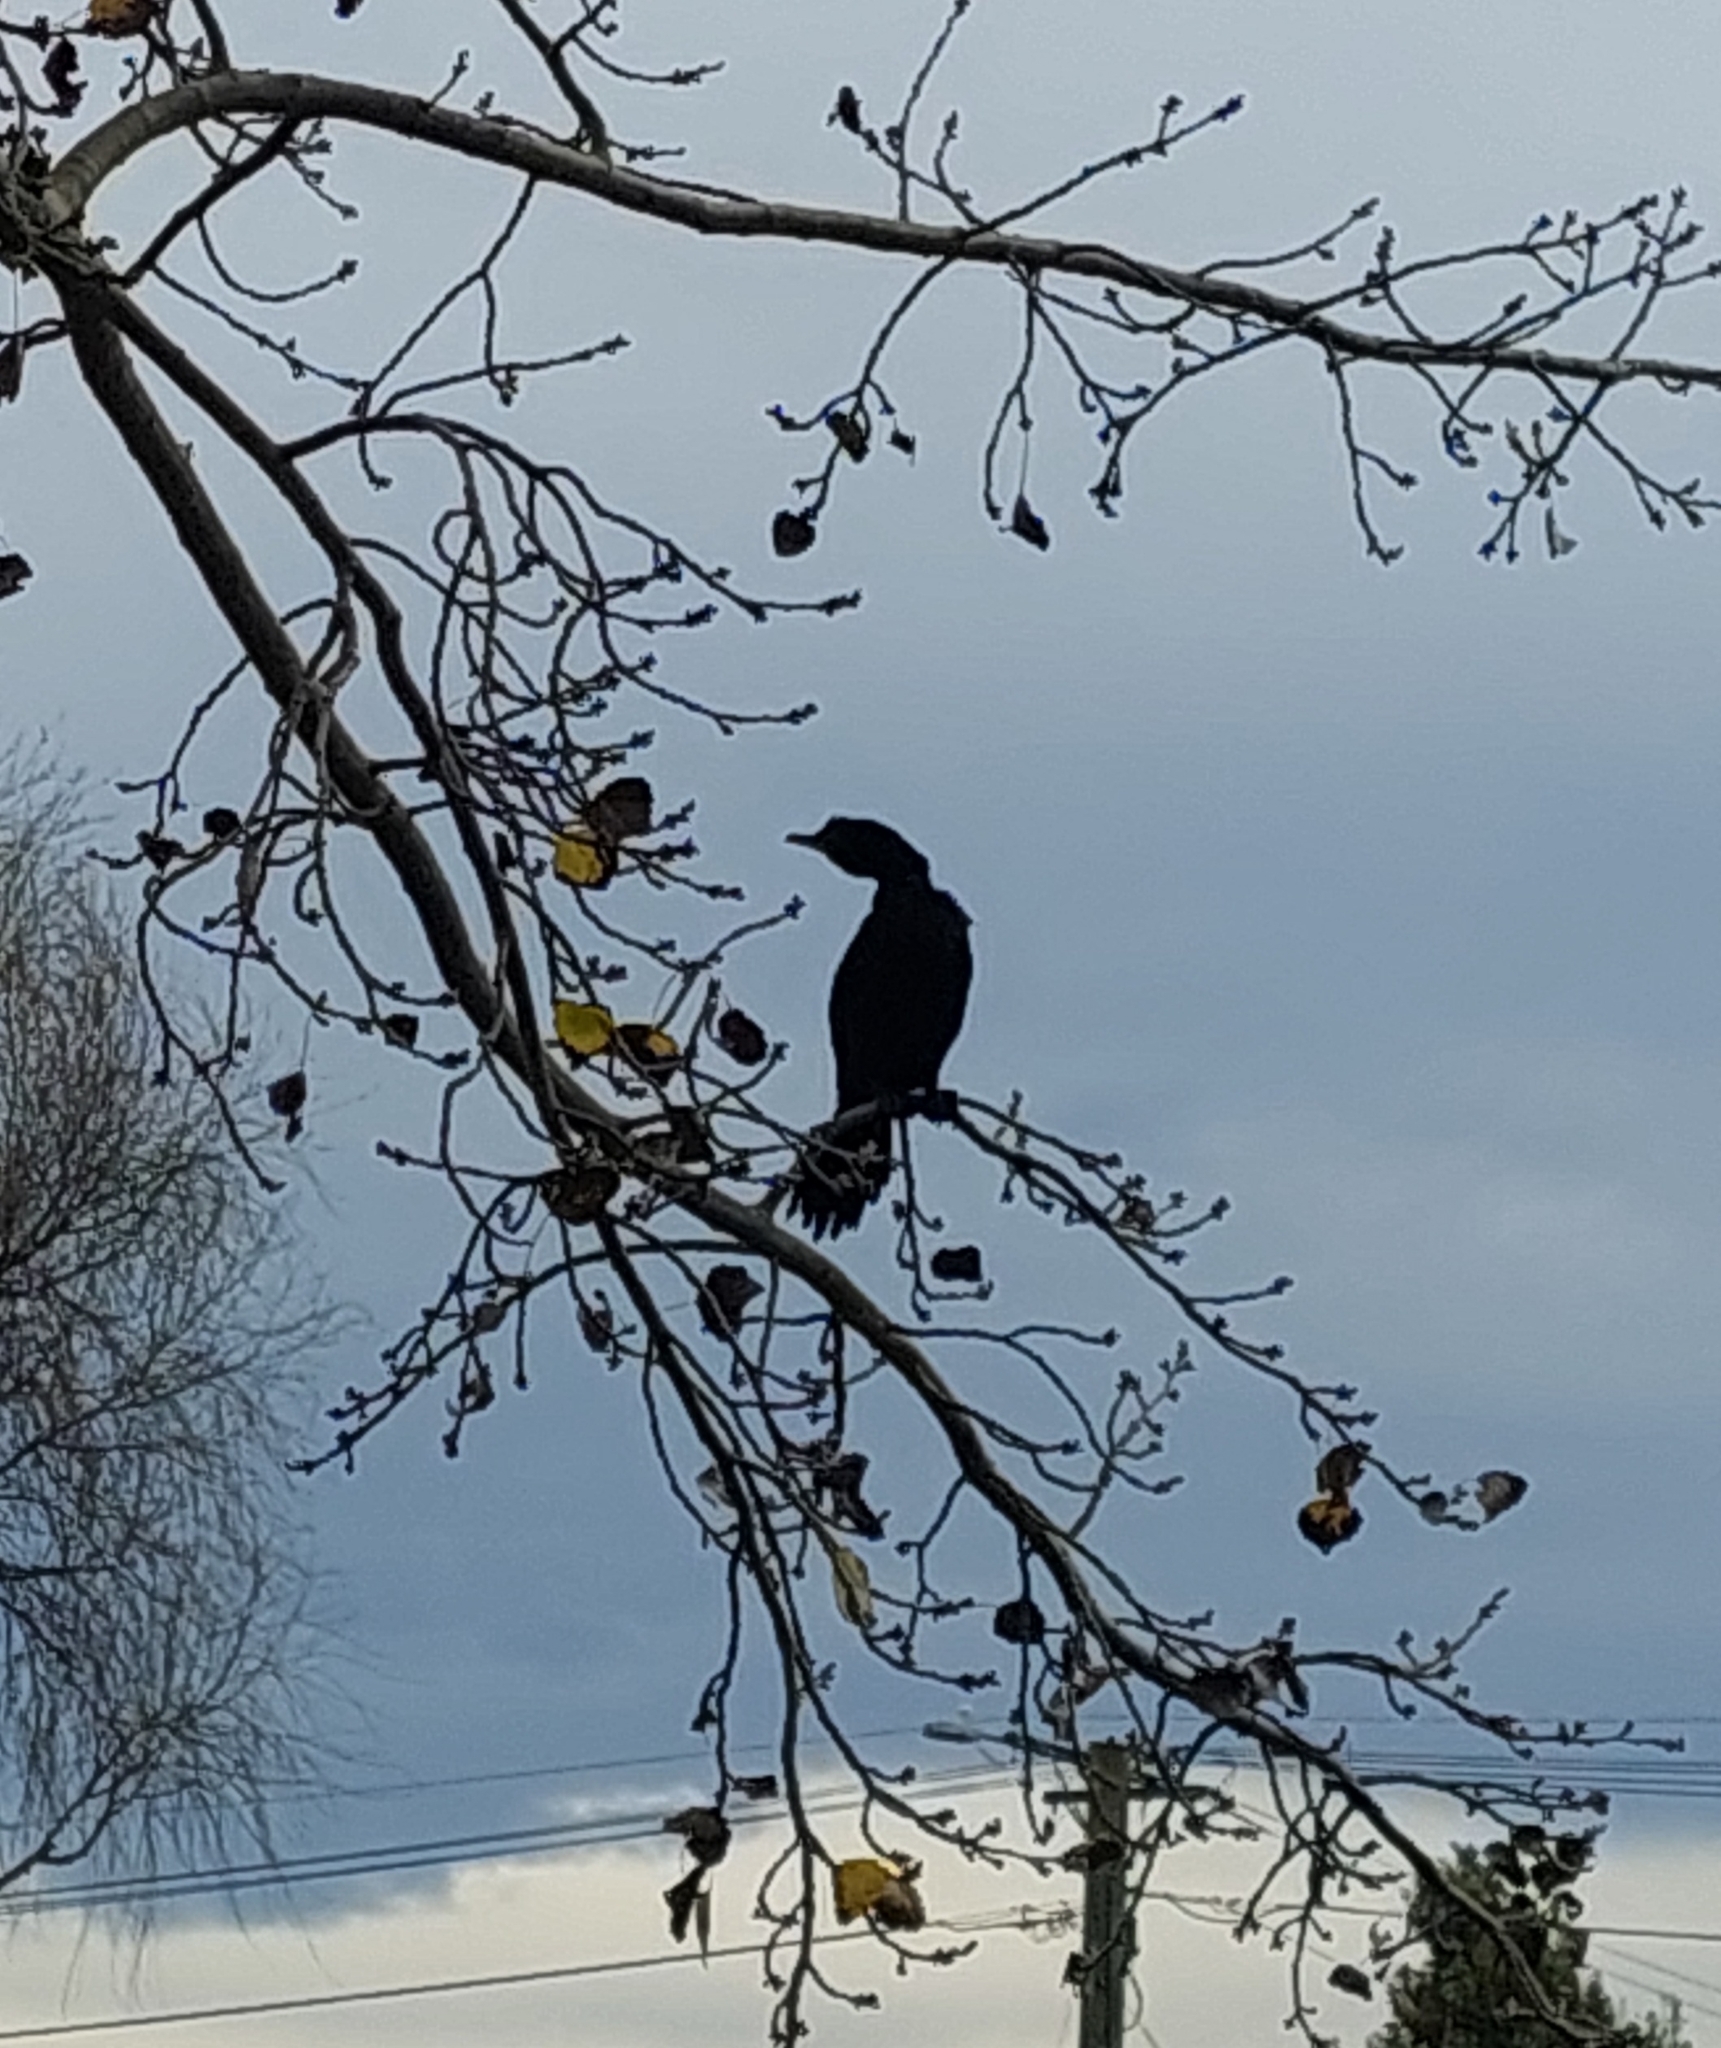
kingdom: Animalia
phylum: Chordata
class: Aves
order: Suliformes
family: Phalacrocoracidae
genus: Microcarbo
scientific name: Microcarbo melanoleucos
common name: Little pied cormorant
